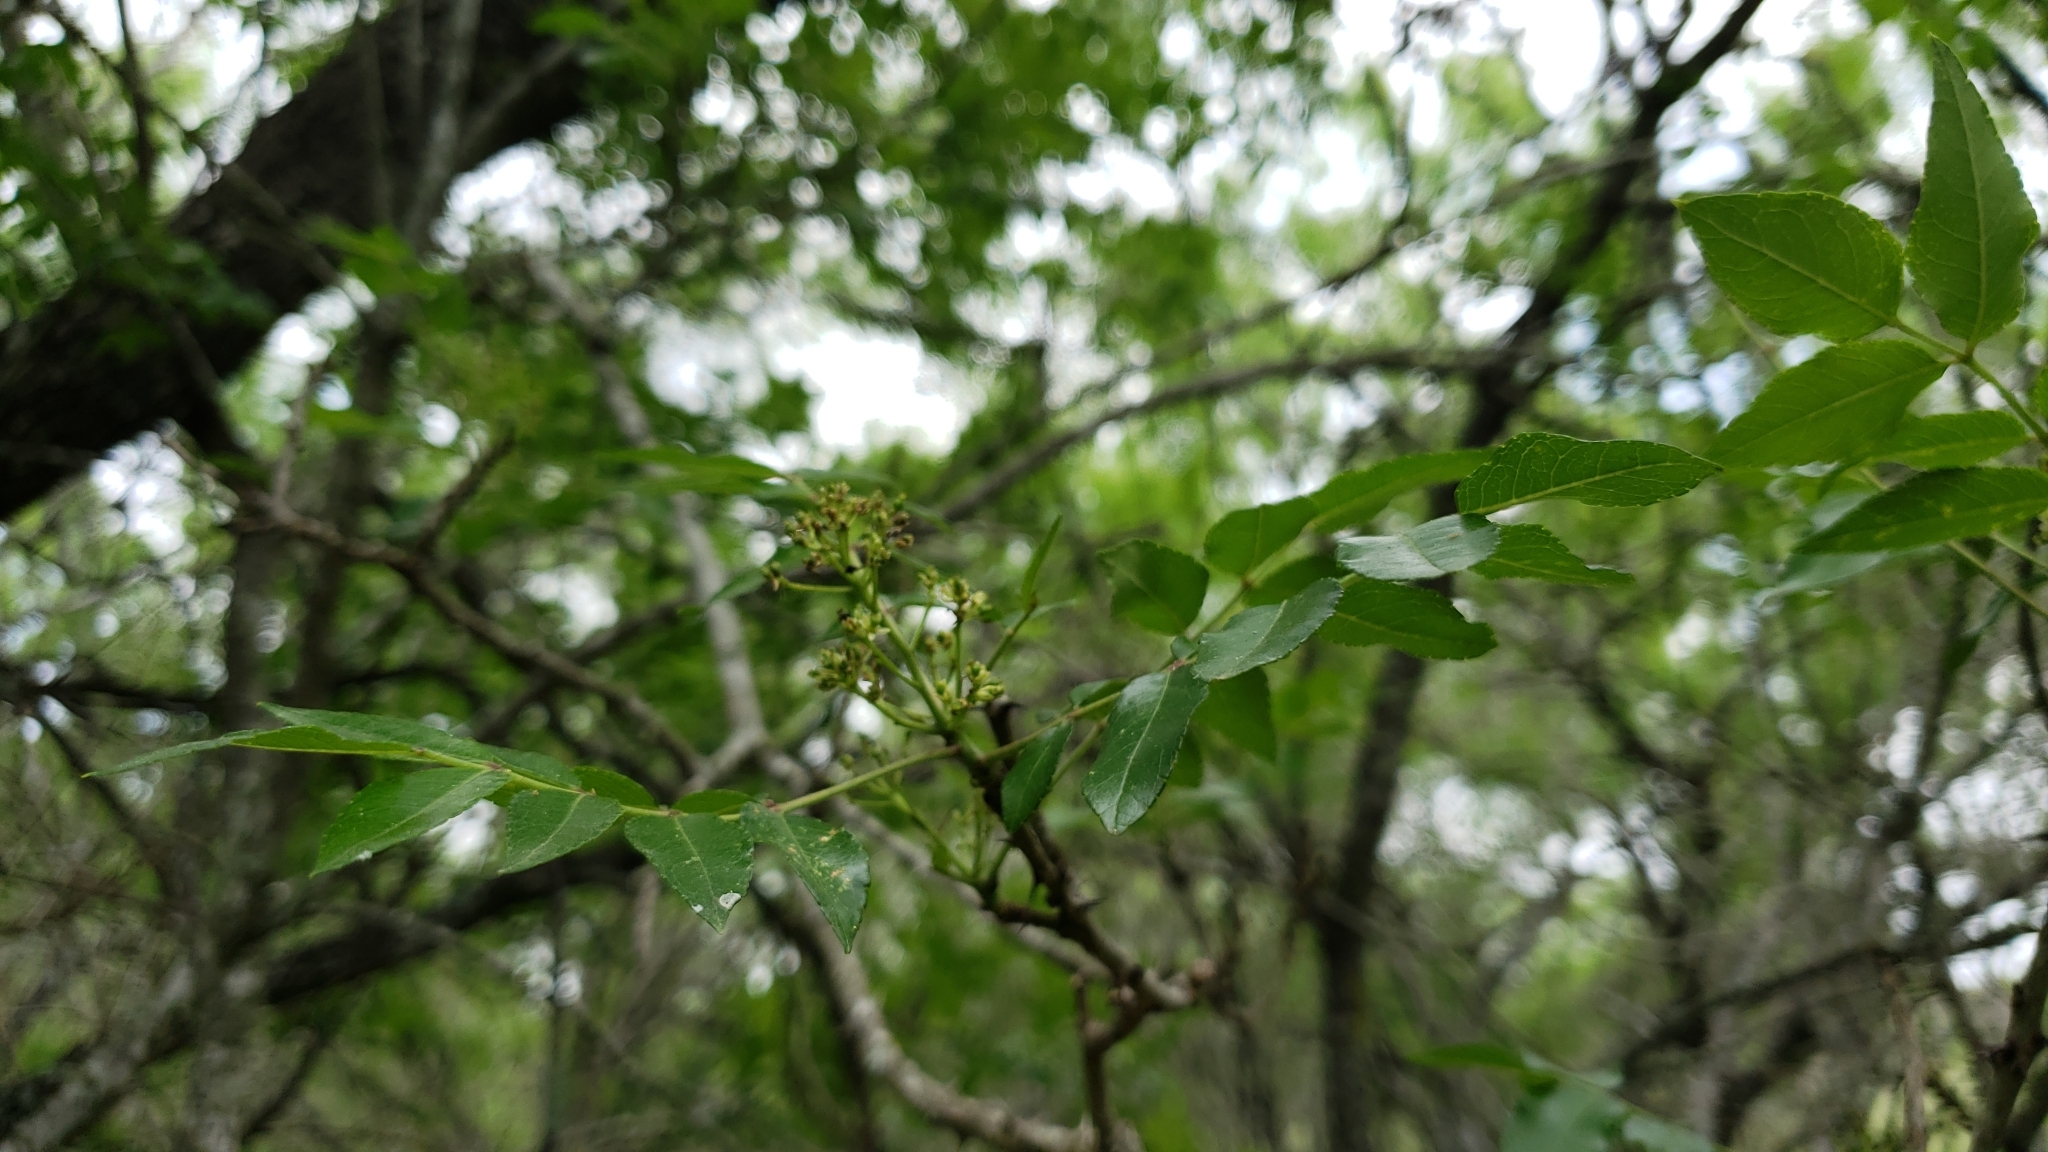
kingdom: Plantae
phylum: Tracheophyta
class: Magnoliopsida
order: Sapindales
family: Rutaceae
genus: Zanthoxylum
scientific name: Zanthoxylum clava-herculis
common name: Hercules'-club
